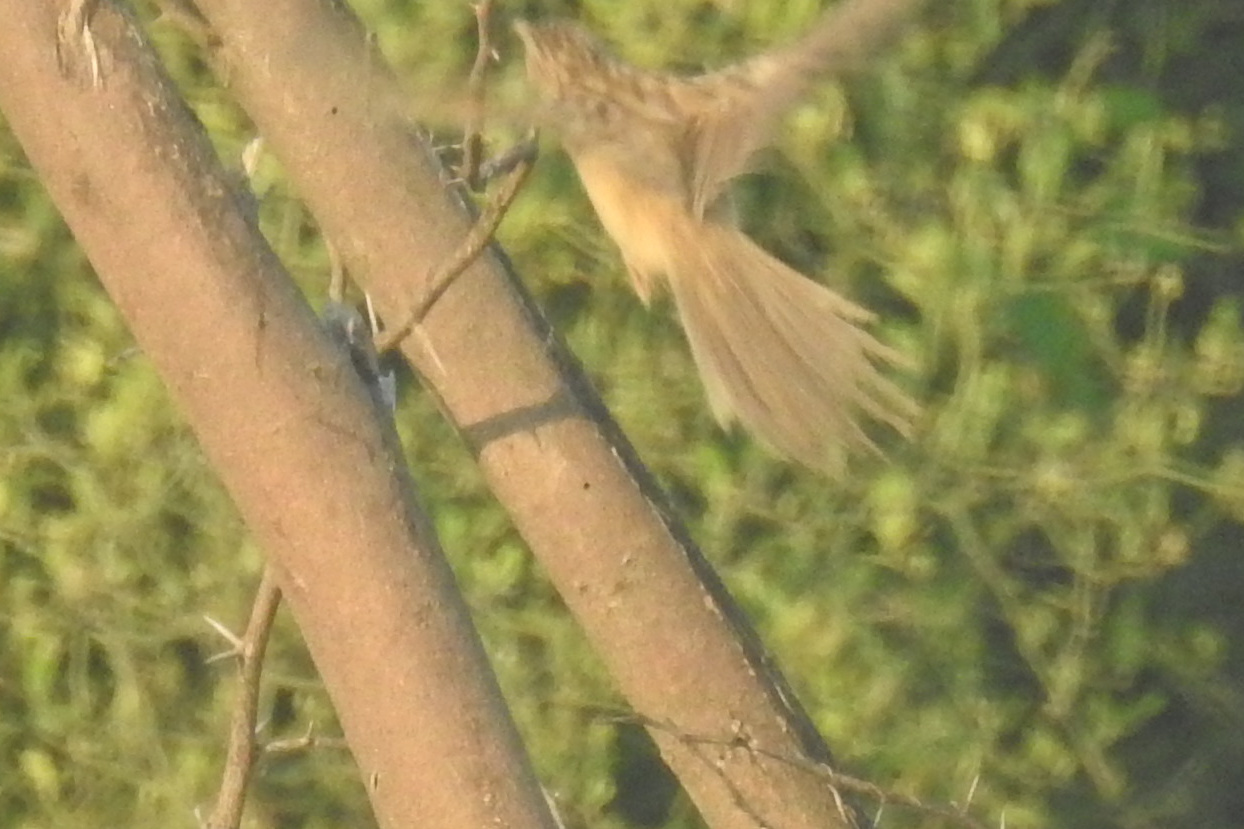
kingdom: Animalia
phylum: Chordata
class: Aves
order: Passeriformes
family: Leiothrichidae
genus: Turdoides
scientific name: Turdoides caudata
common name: Common babbler
